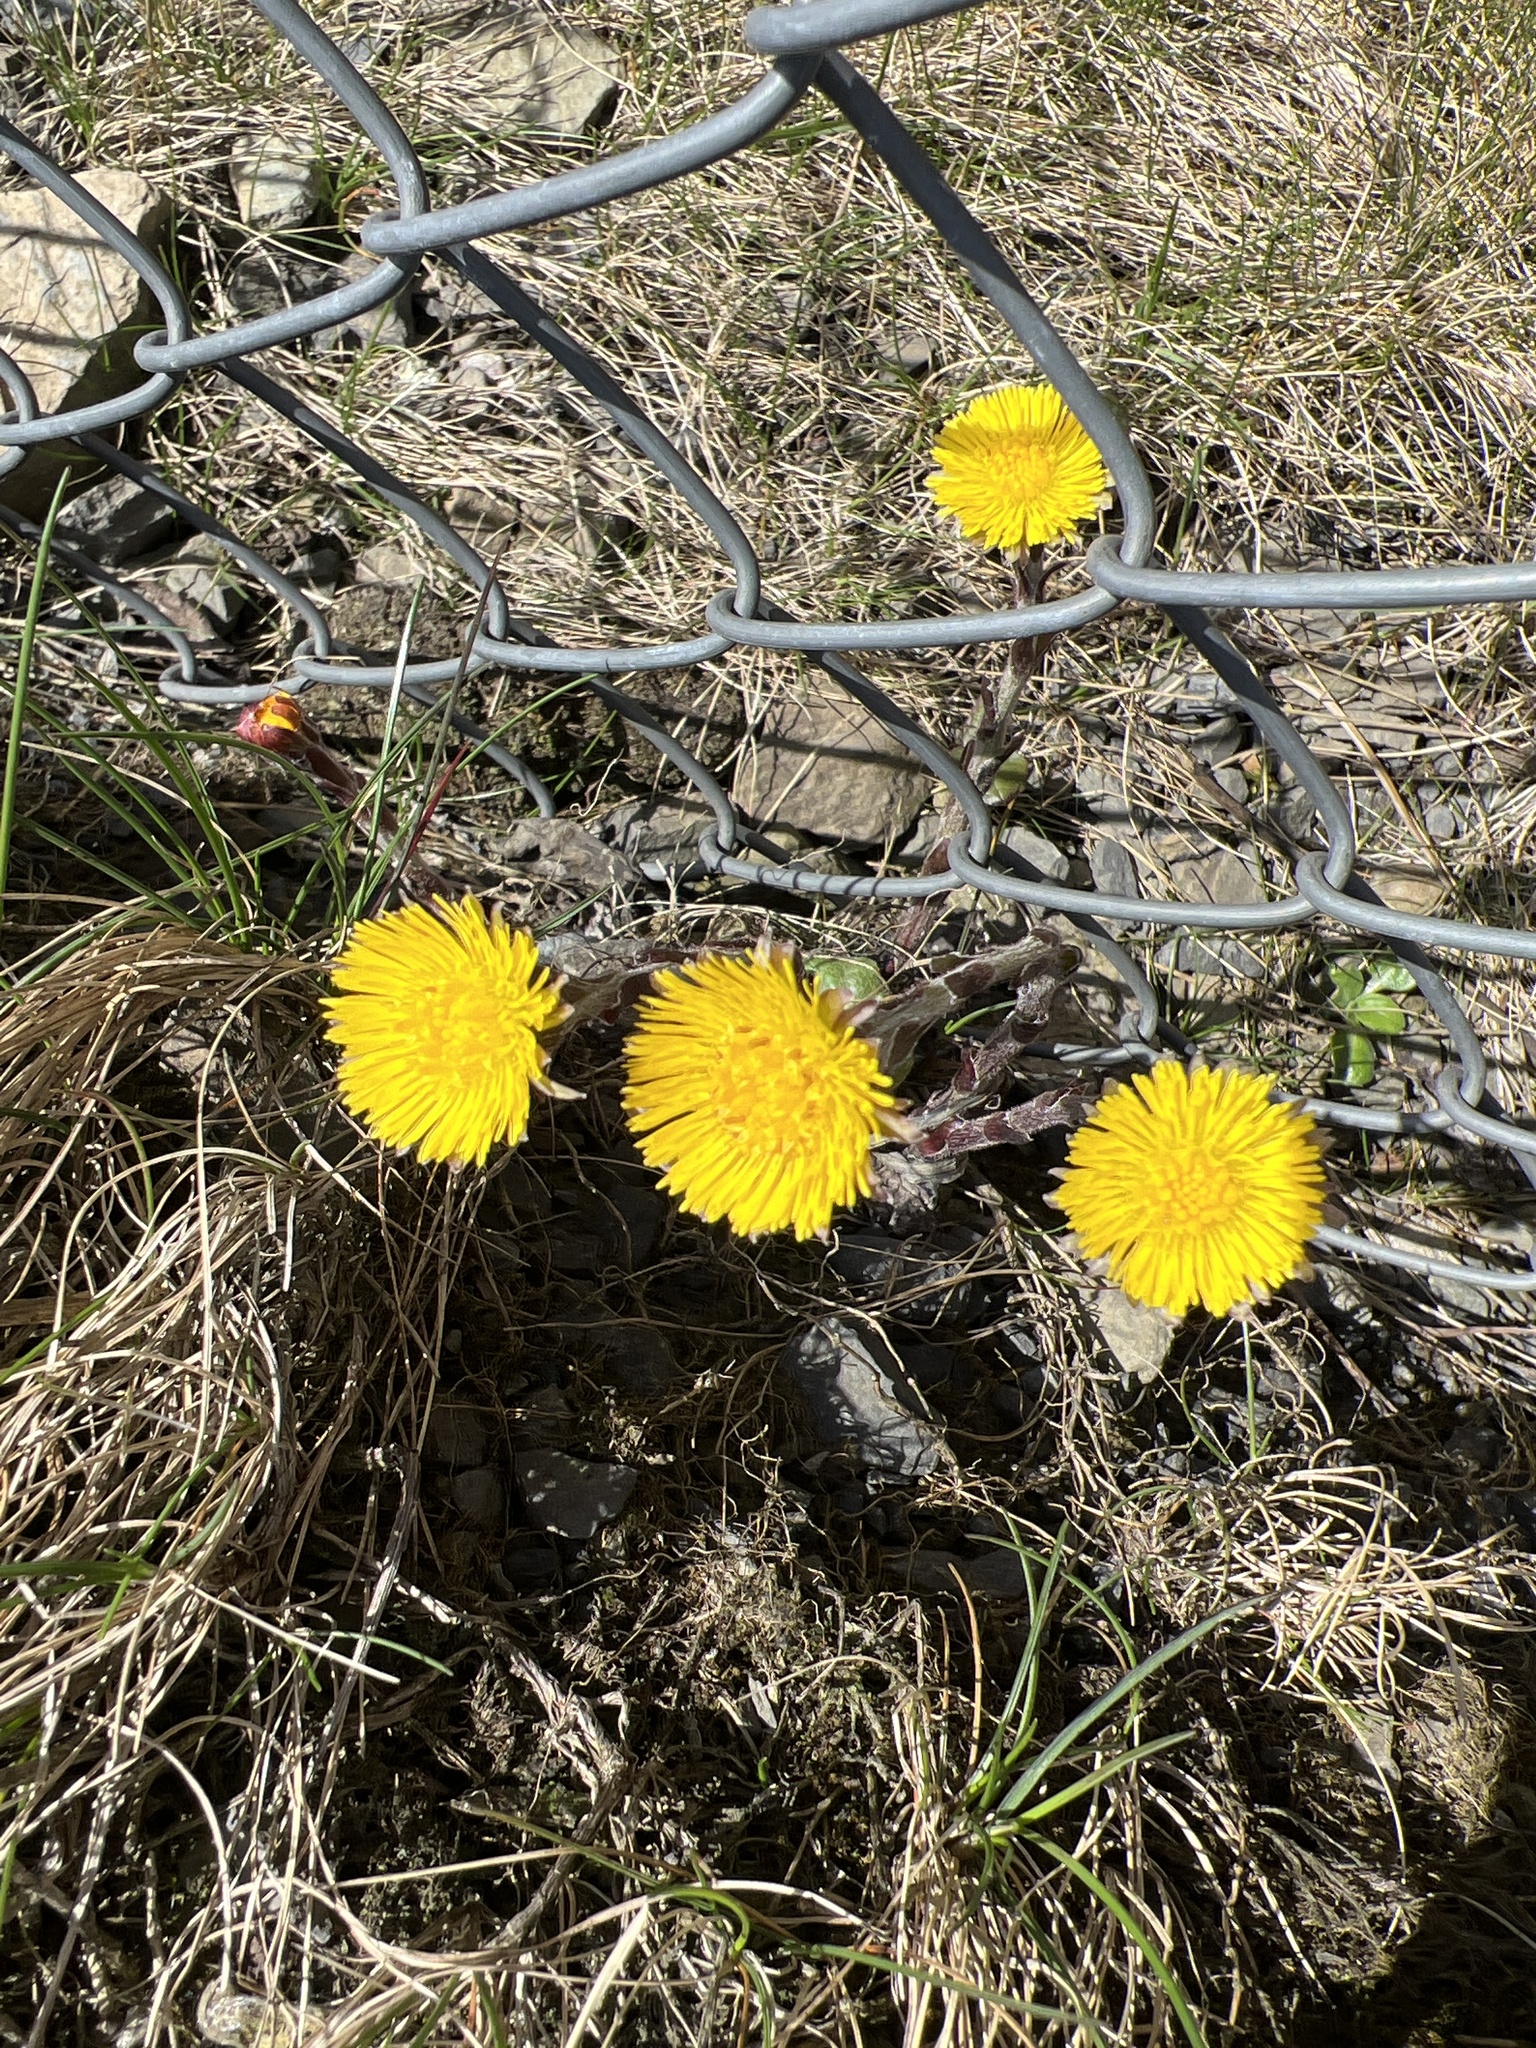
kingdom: Plantae
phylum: Tracheophyta
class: Magnoliopsida
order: Asterales
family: Asteraceae
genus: Tussilago
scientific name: Tussilago farfara
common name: Coltsfoot
